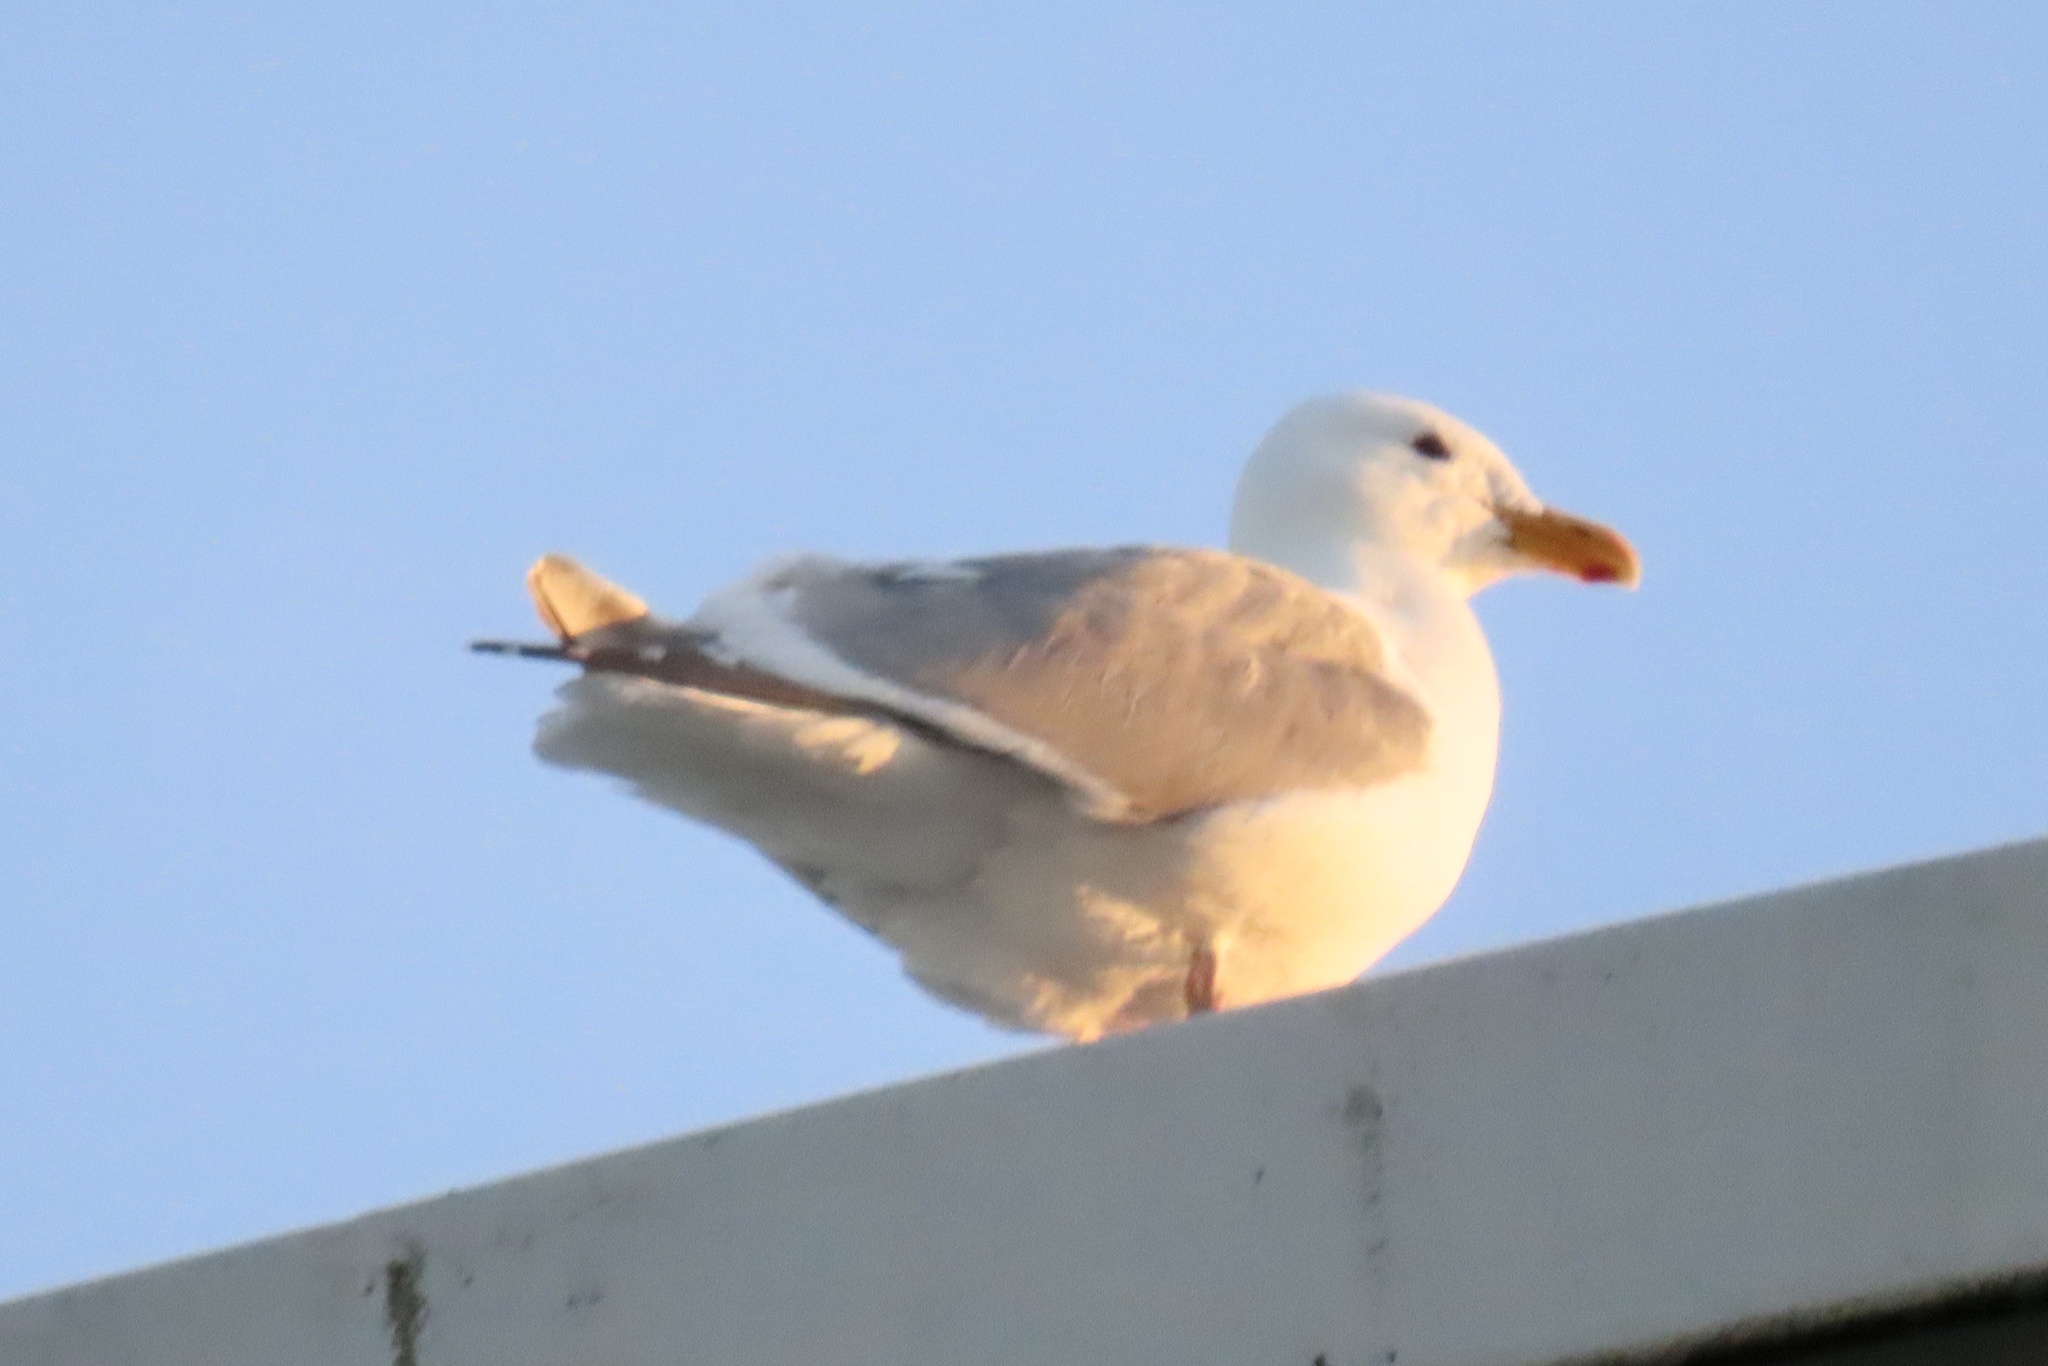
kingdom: Animalia
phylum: Chordata
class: Aves
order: Charadriiformes
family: Laridae
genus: Larus
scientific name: Larus
